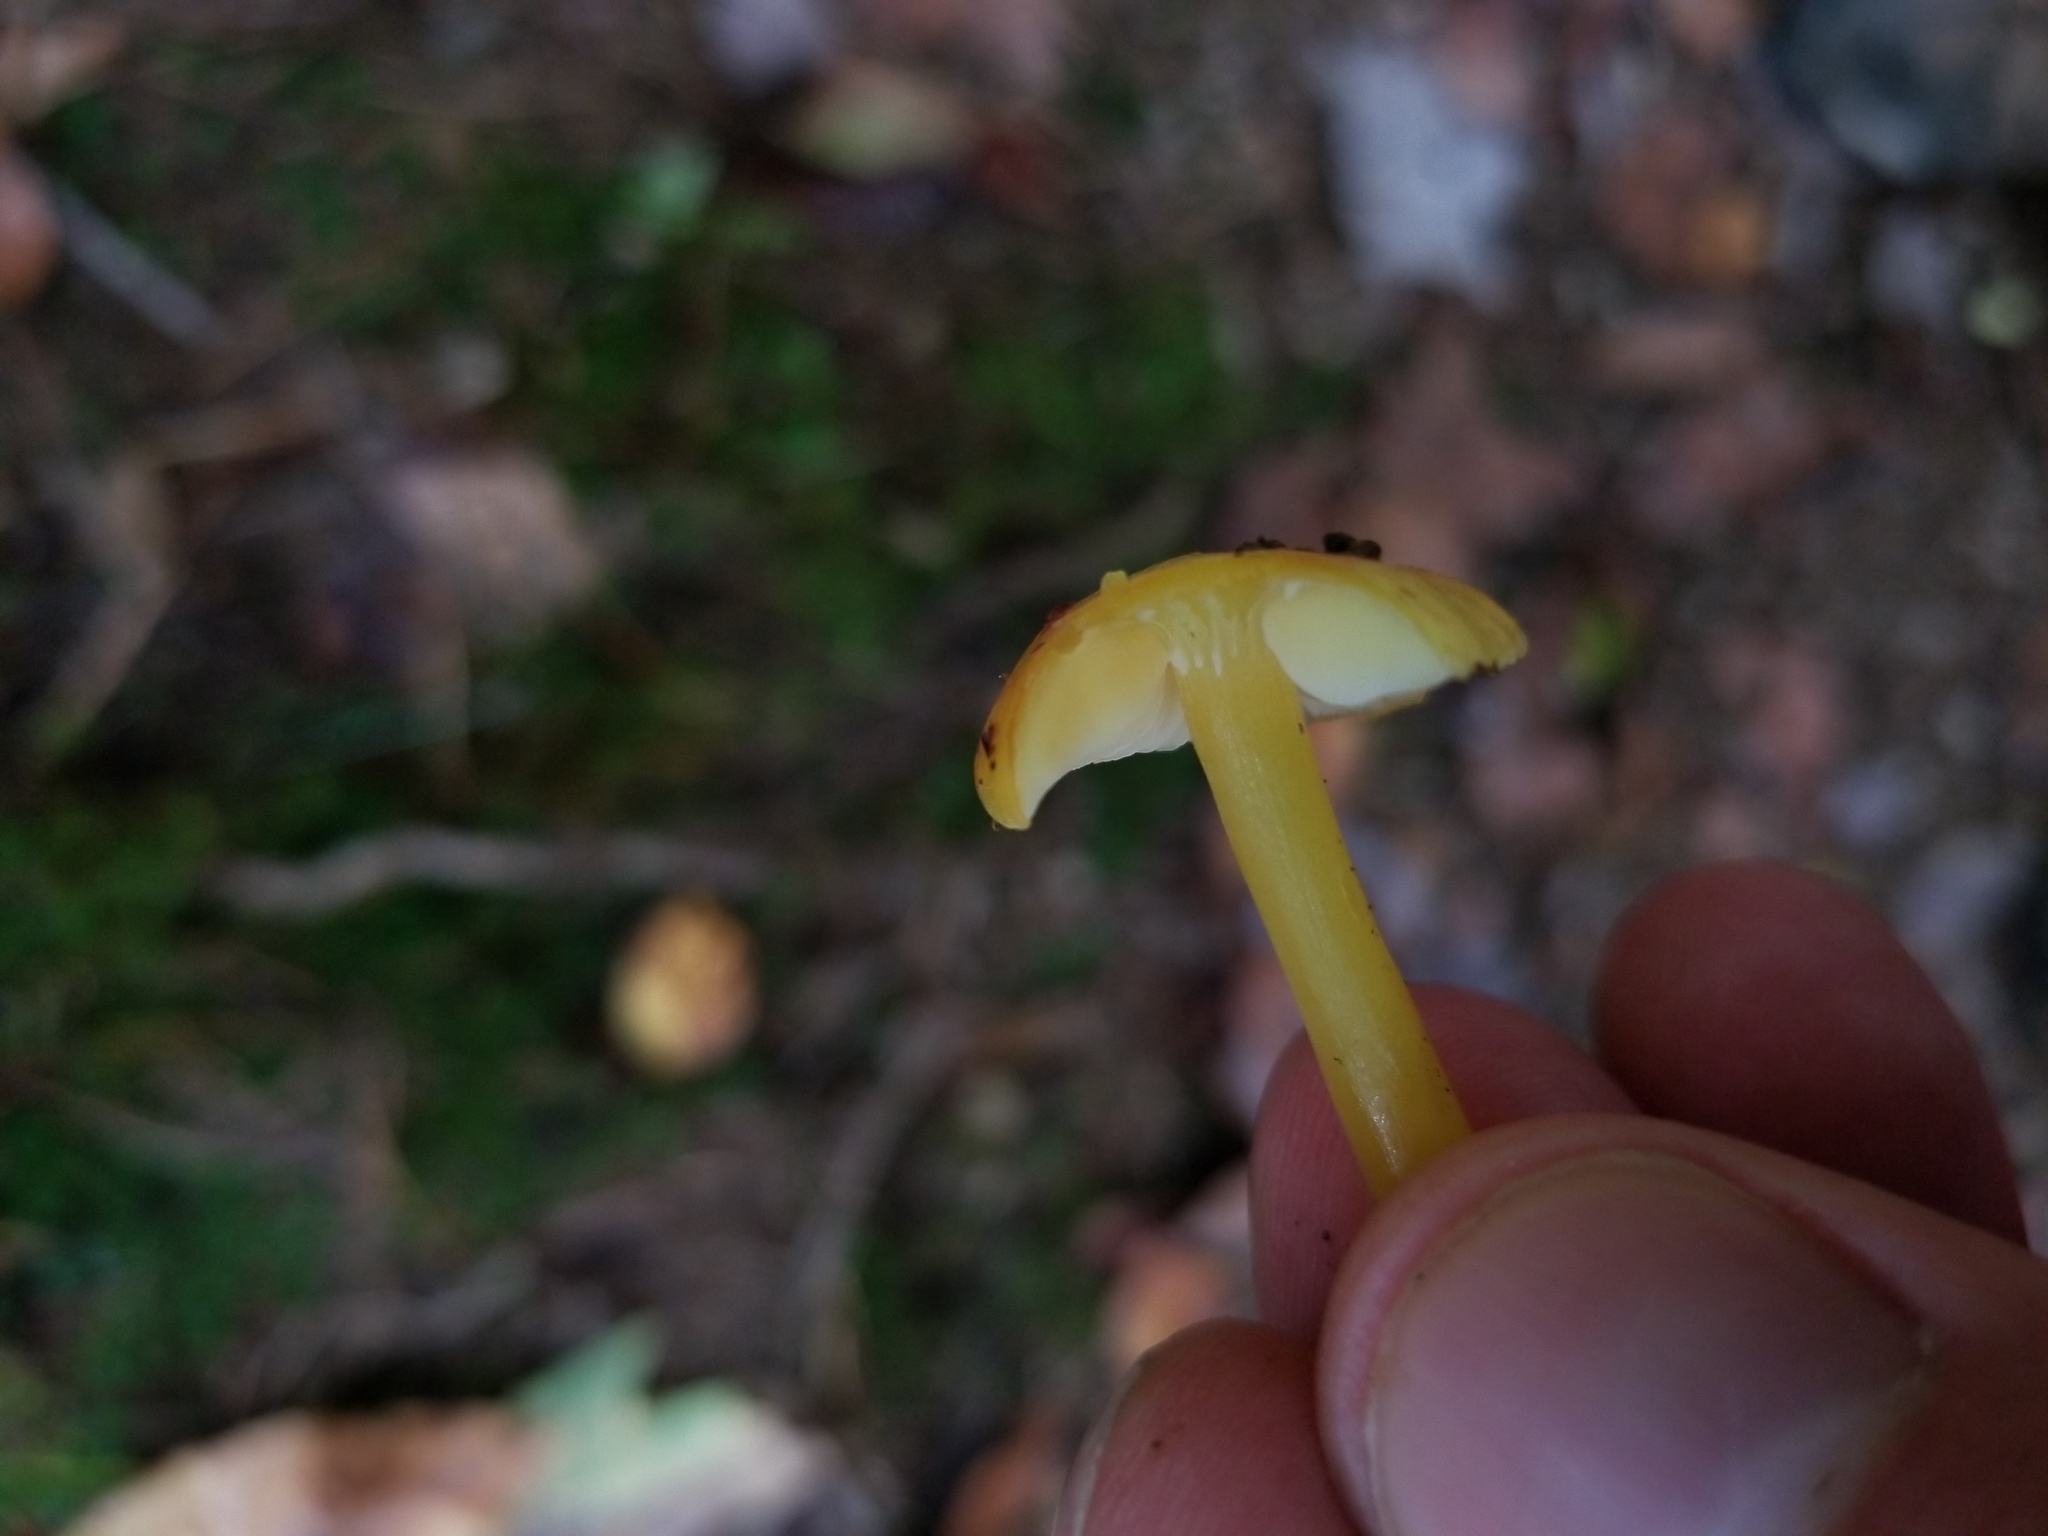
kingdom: Fungi
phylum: Basidiomycota
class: Agaricomycetes
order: Agaricales
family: Pluteaceae
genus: Pluteus
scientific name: Pluteus chrysophlebius
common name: Yellow deer mushroom
